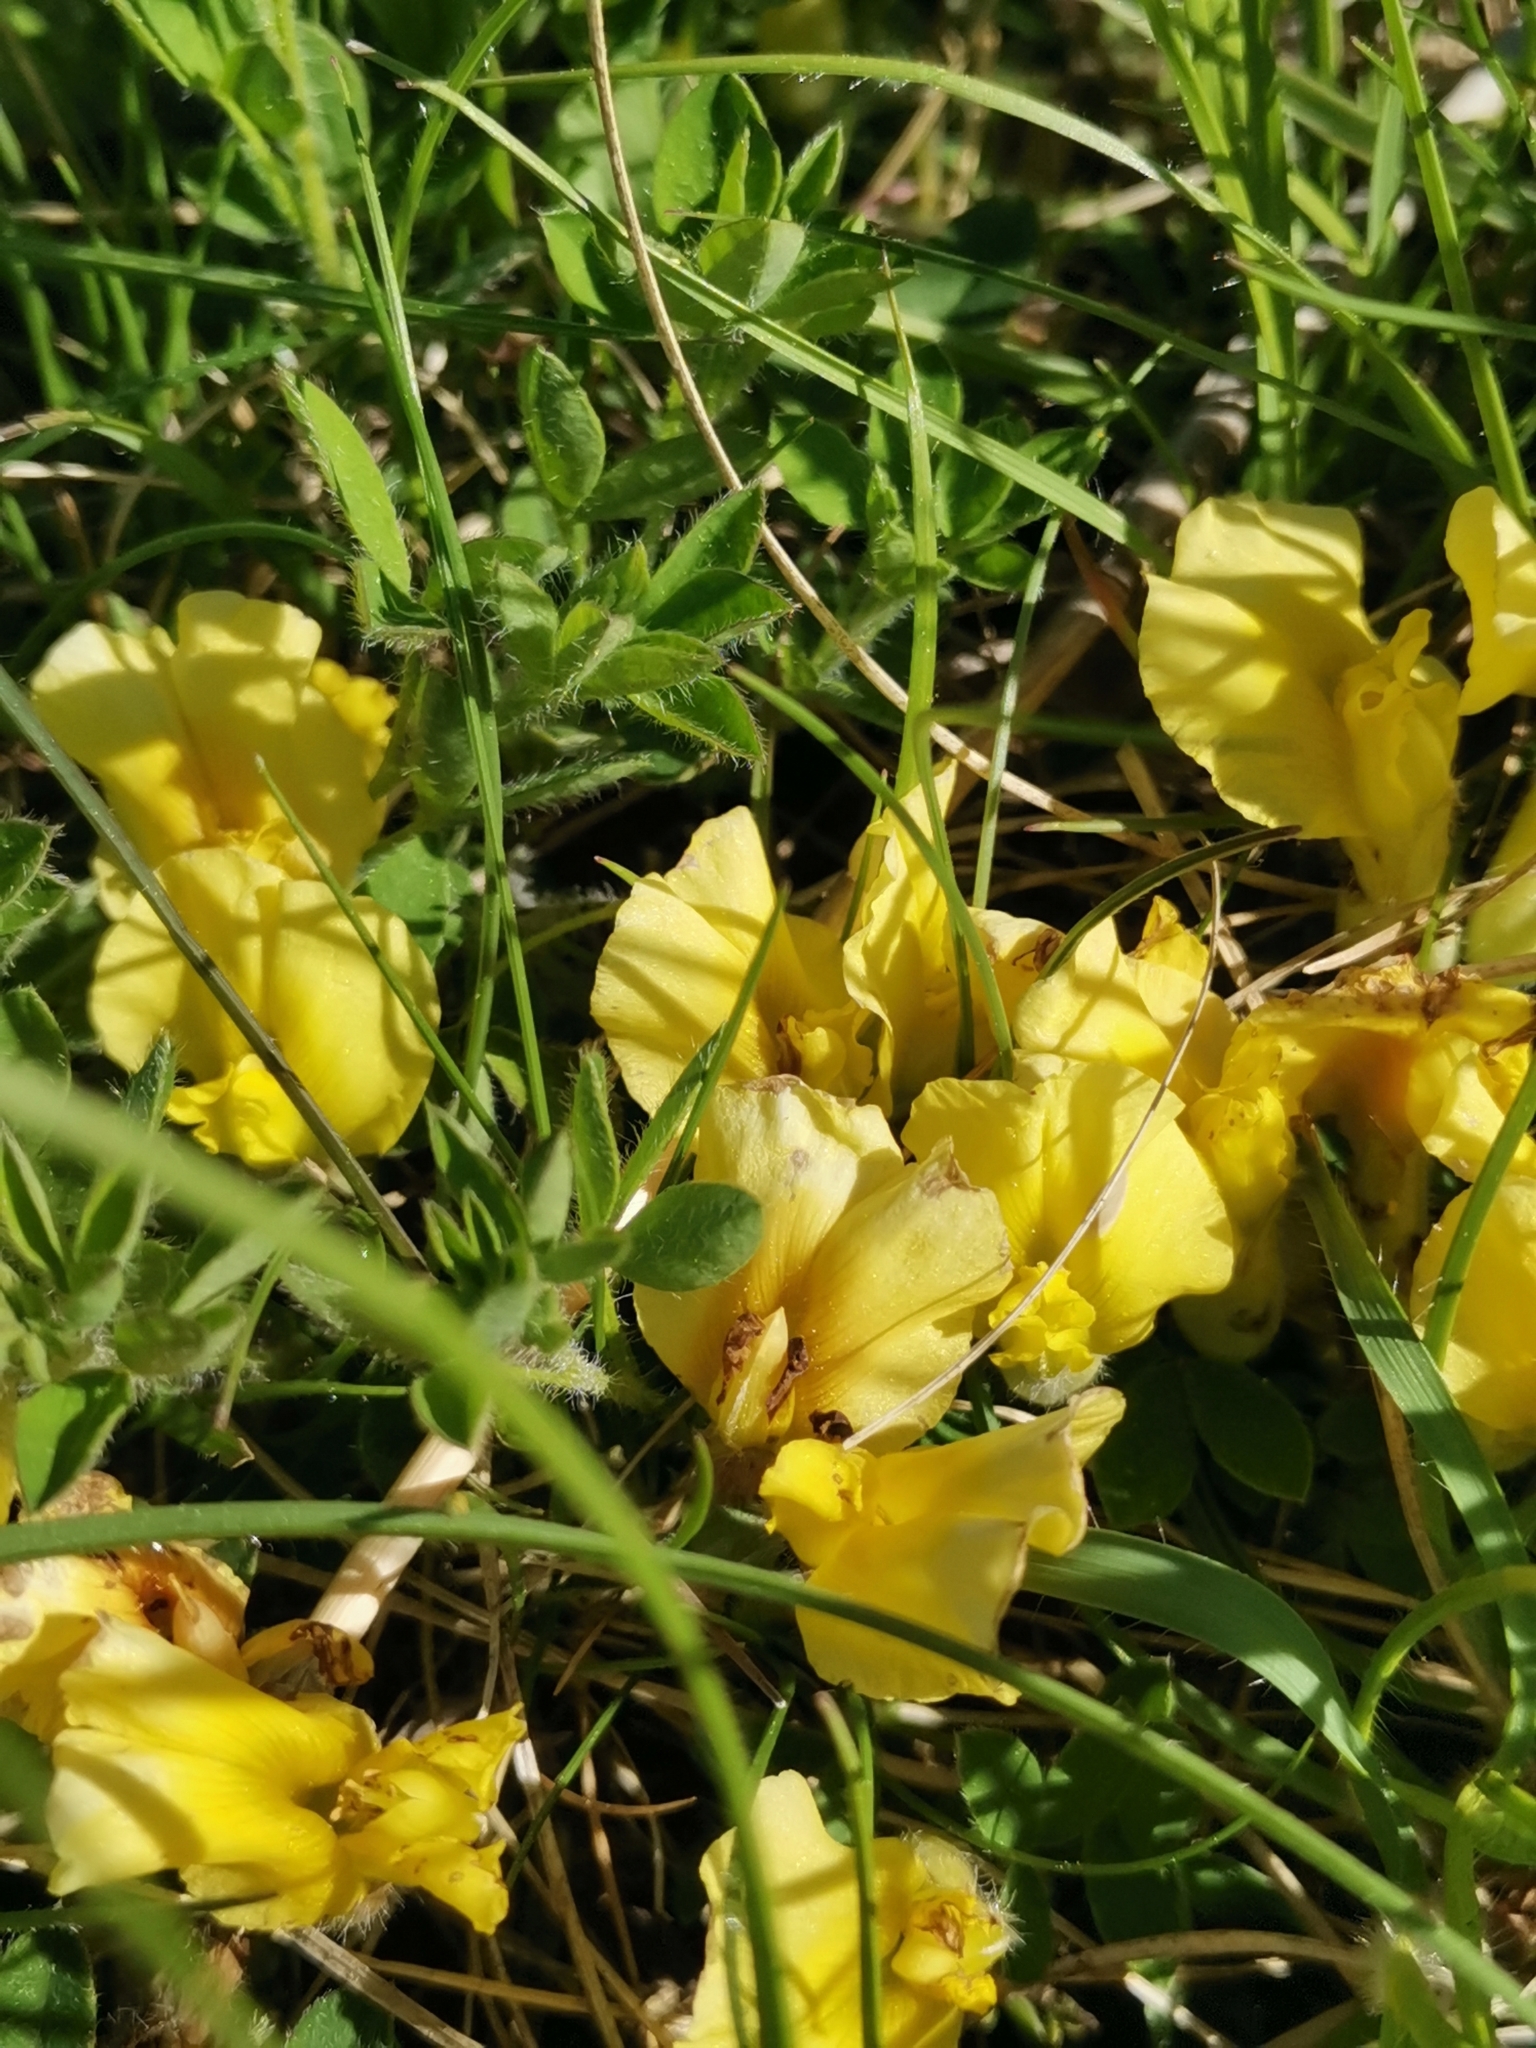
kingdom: Plantae
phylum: Tracheophyta
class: Magnoliopsida
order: Fabales
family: Fabaceae
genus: Chamaecytisus
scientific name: Chamaecytisus hirsutus
